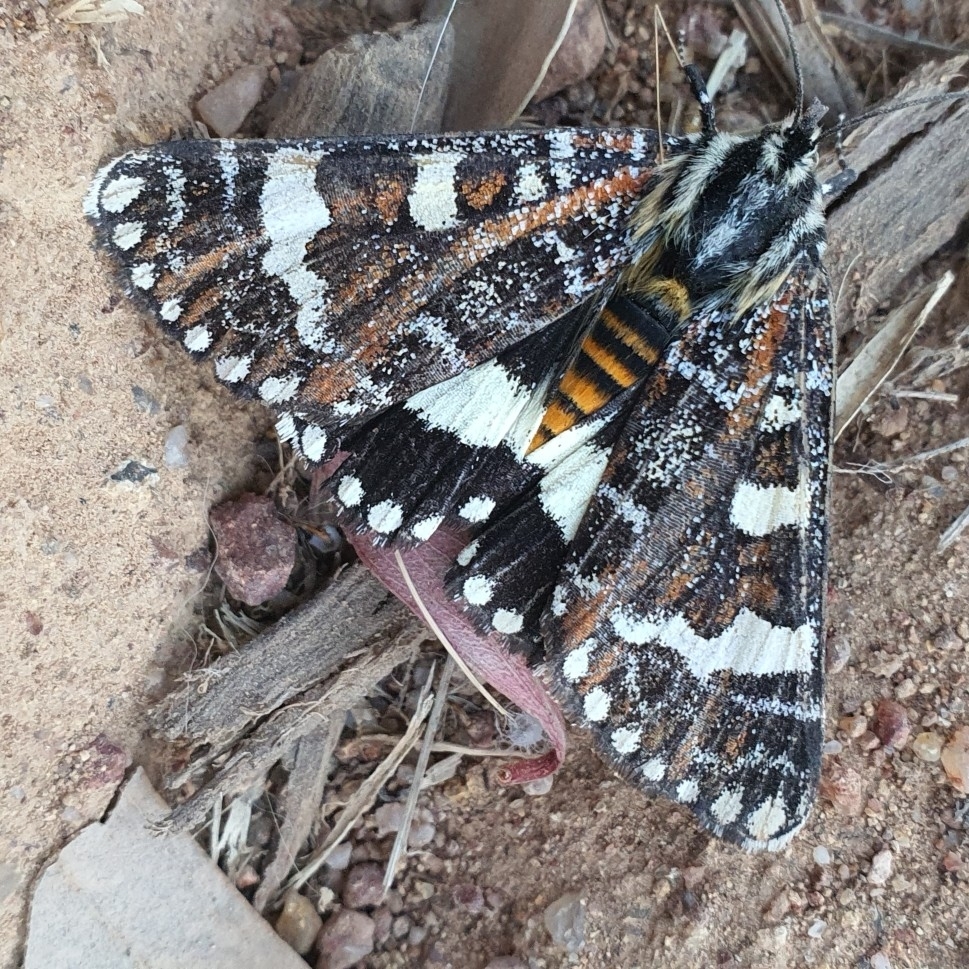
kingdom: Animalia
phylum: Arthropoda
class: Insecta
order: Lepidoptera
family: Noctuidae
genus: Apina
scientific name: Apina callisto
